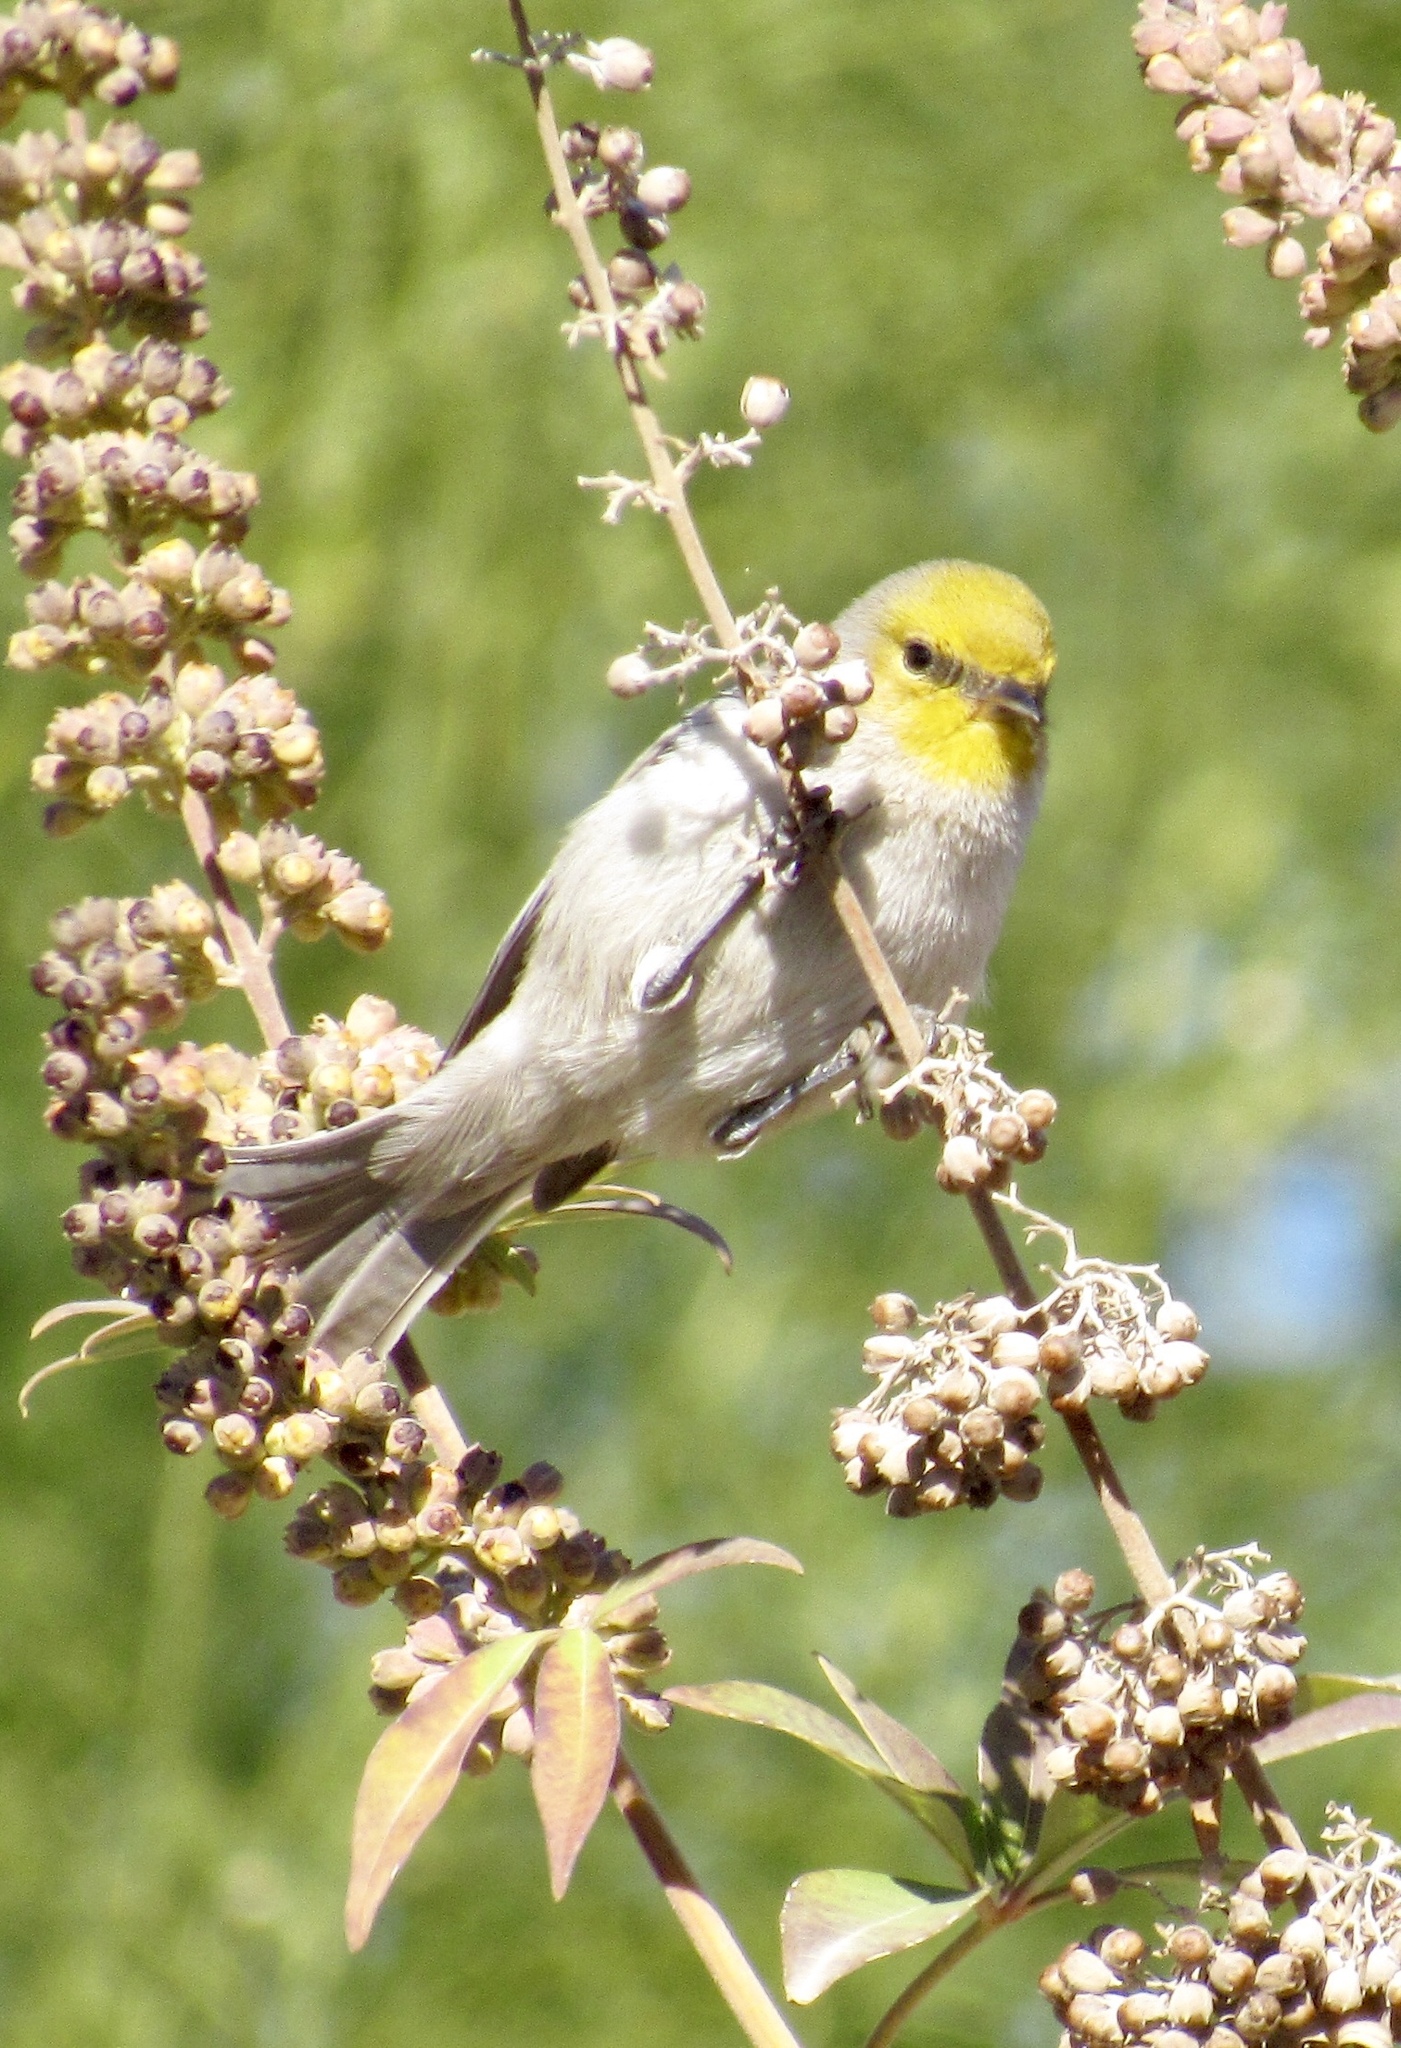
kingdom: Animalia
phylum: Chordata
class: Aves
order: Passeriformes
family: Remizidae
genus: Auriparus
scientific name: Auriparus flaviceps
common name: Verdin
